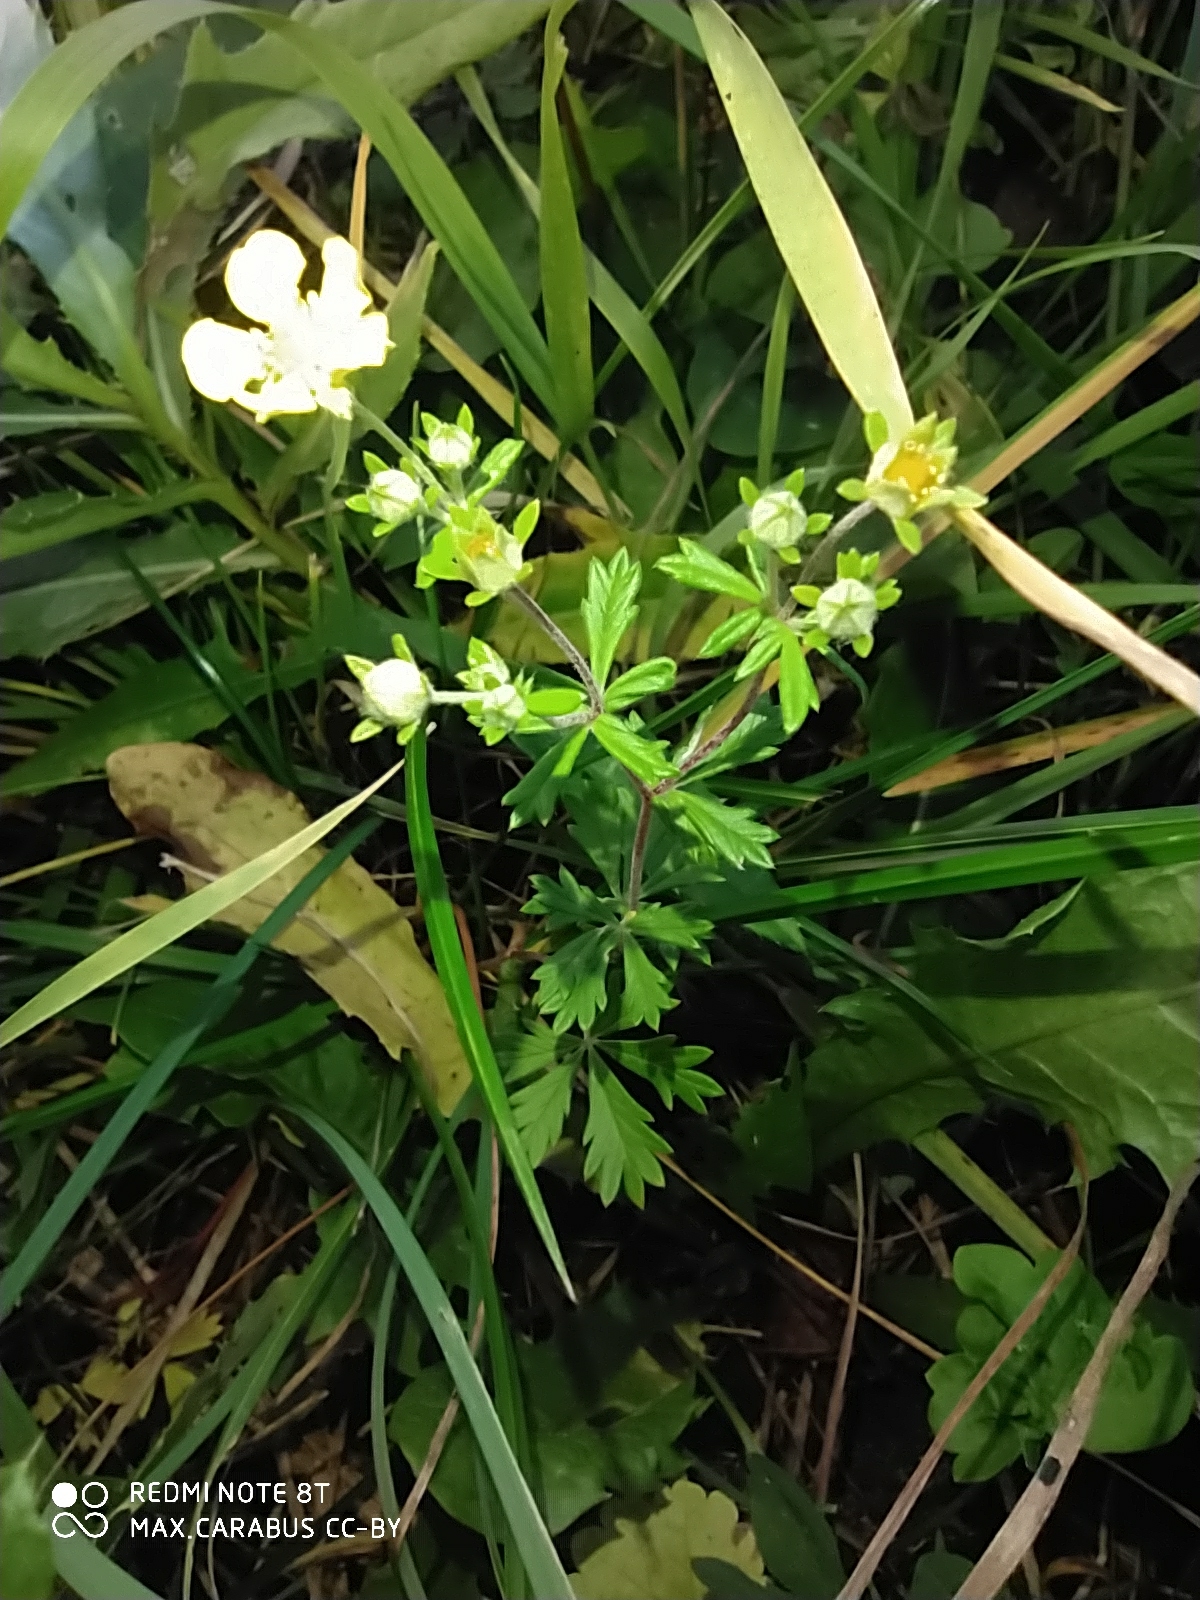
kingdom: Plantae
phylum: Tracheophyta
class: Magnoliopsida
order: Rosales
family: Rosaceae
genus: Potentilla
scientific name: Potentilla argentea
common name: Hoary cinquefoil
